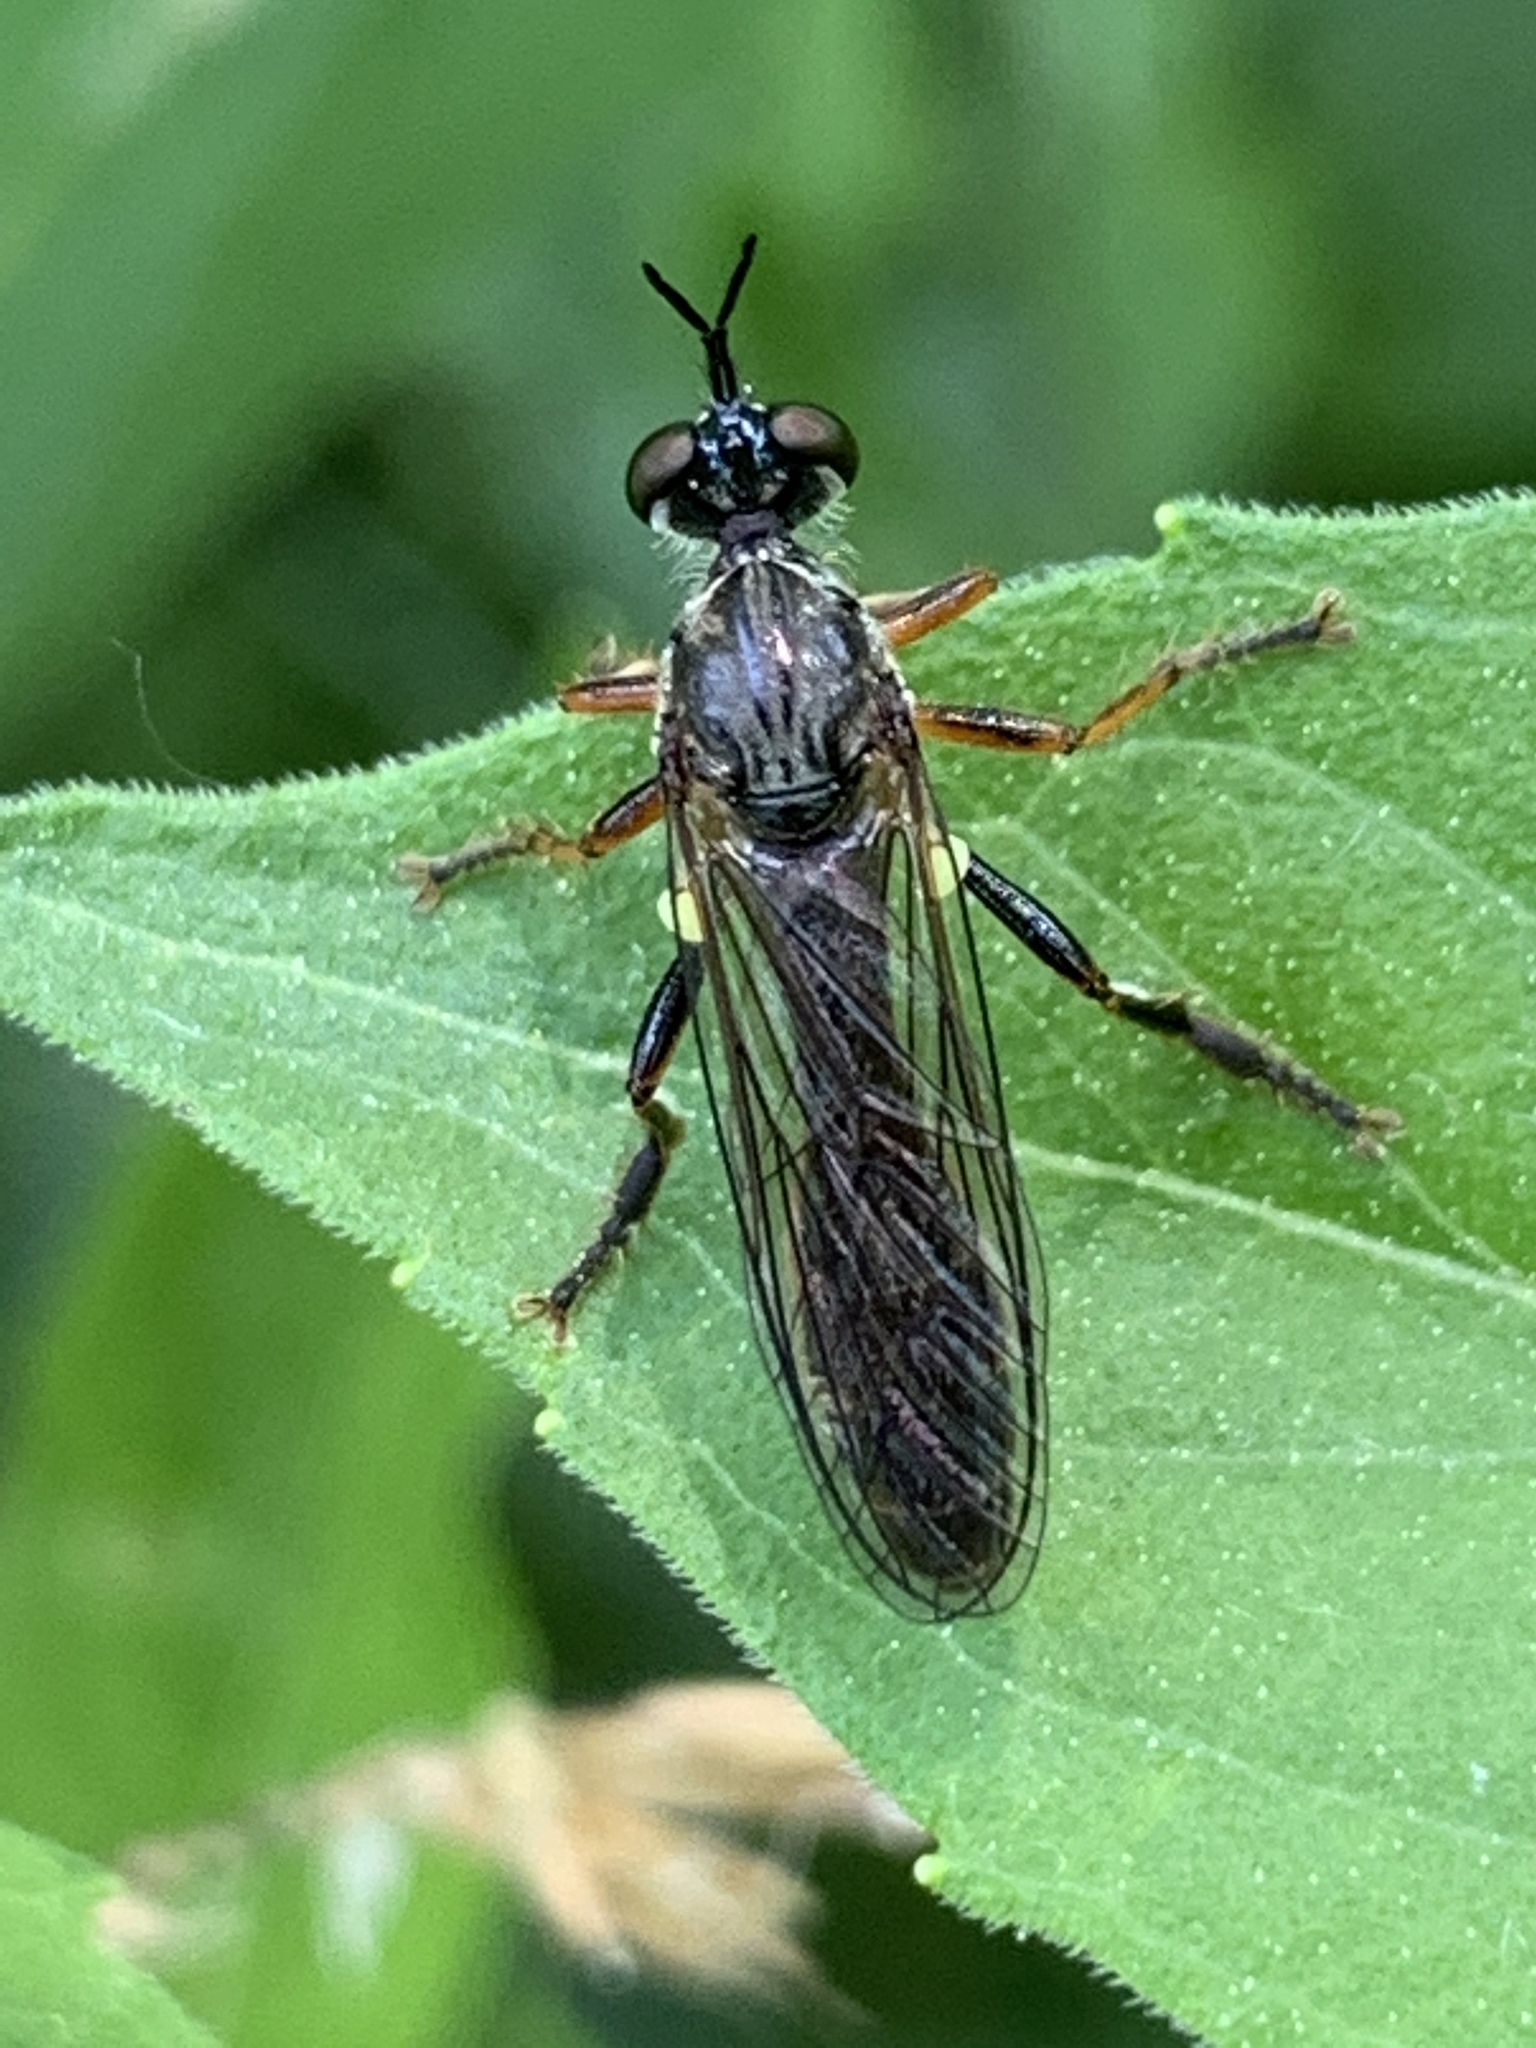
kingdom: Animalia
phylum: Arthropoda
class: Insecta
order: Diptera
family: Asilidae
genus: Dioctria
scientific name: Dioctria hyalipennis
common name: Stripe-legged robberfly
